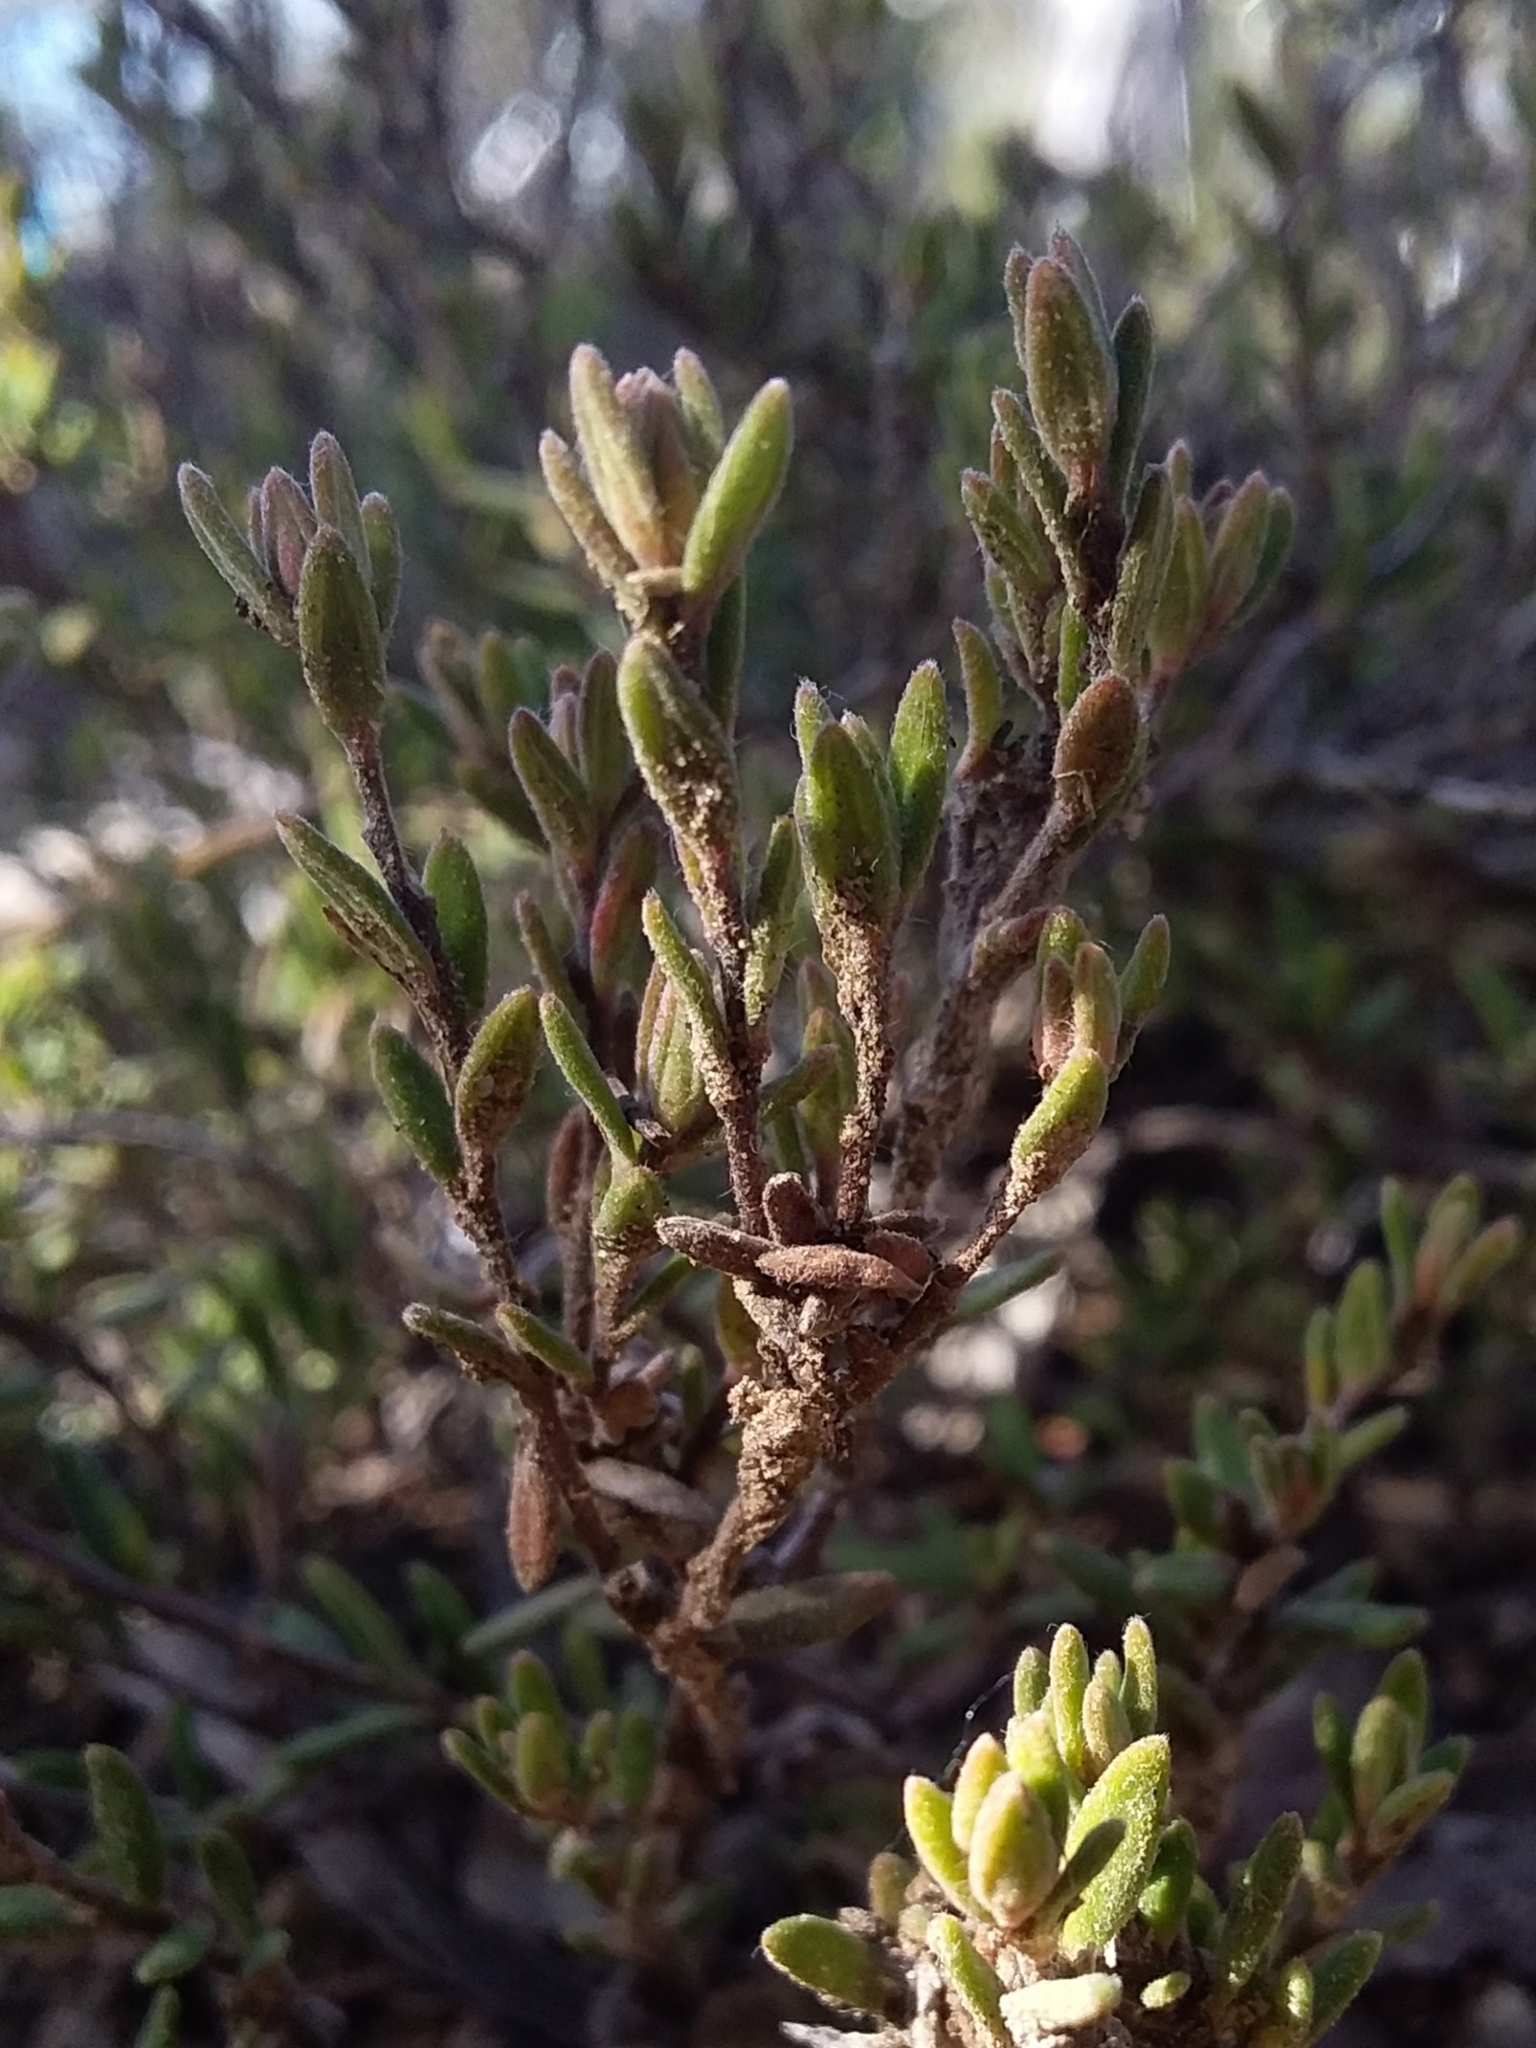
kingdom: Plantae
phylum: Tracheophyta
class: Magnoliopsida
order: Dilleniales
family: Dilleniaceae
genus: Hibbertia
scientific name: Hibbertia crinita
